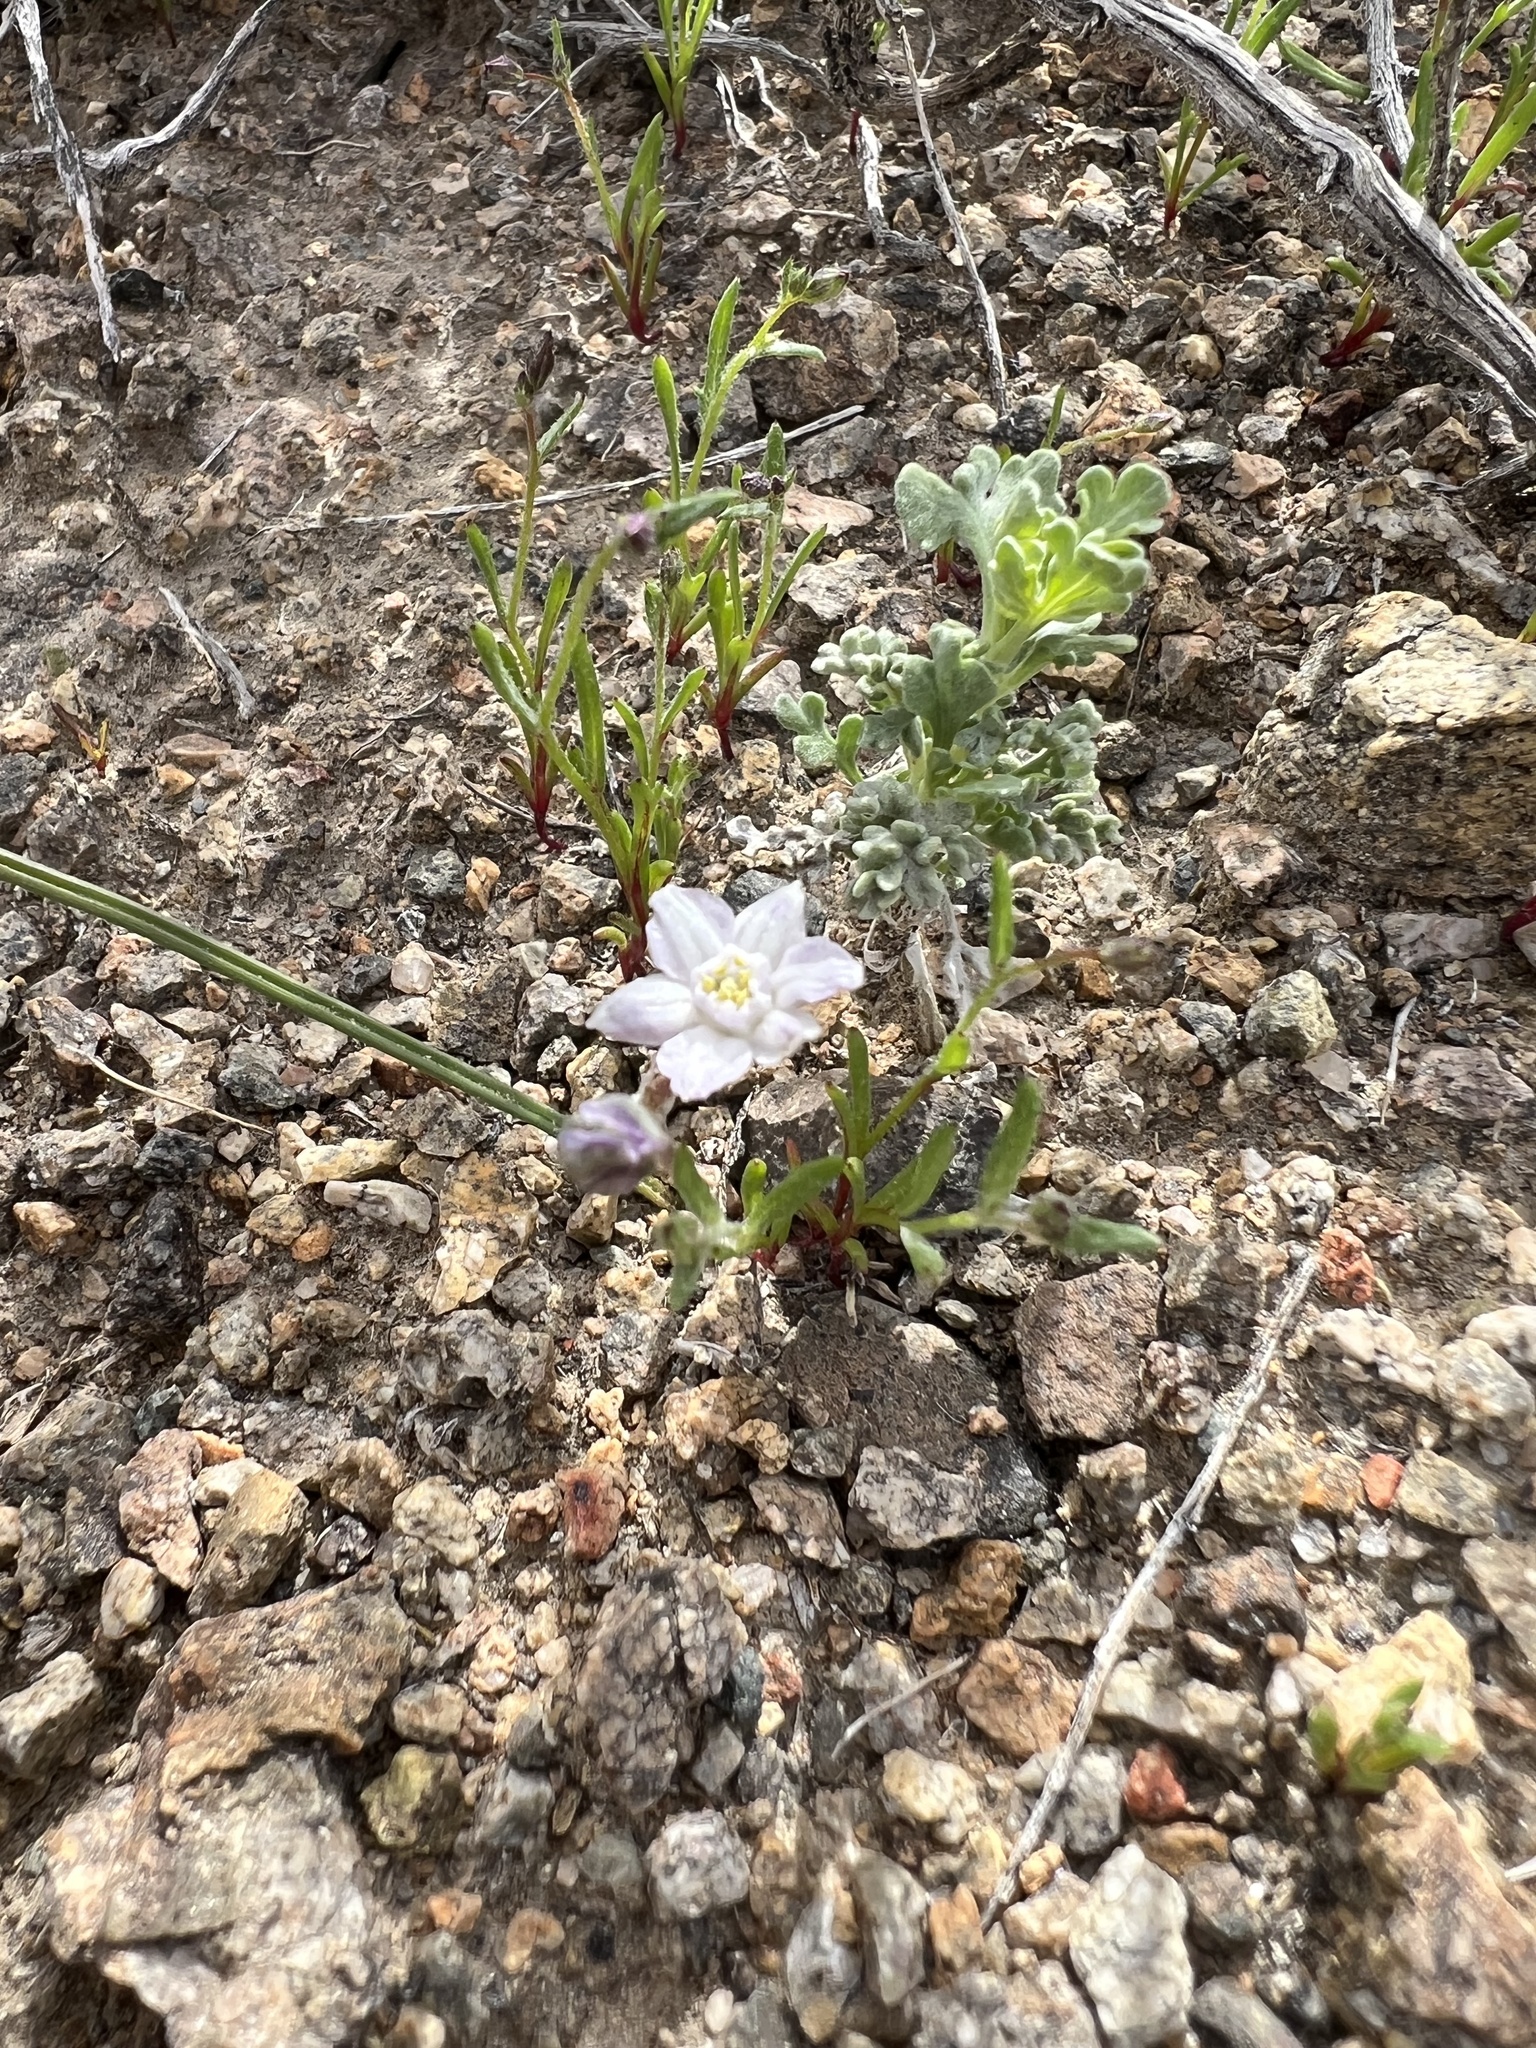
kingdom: Plantae
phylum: Tracheophyta
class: Liliopsida
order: Asparagales
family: Asparagaceae
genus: Muilla
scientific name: Muilla coronata
